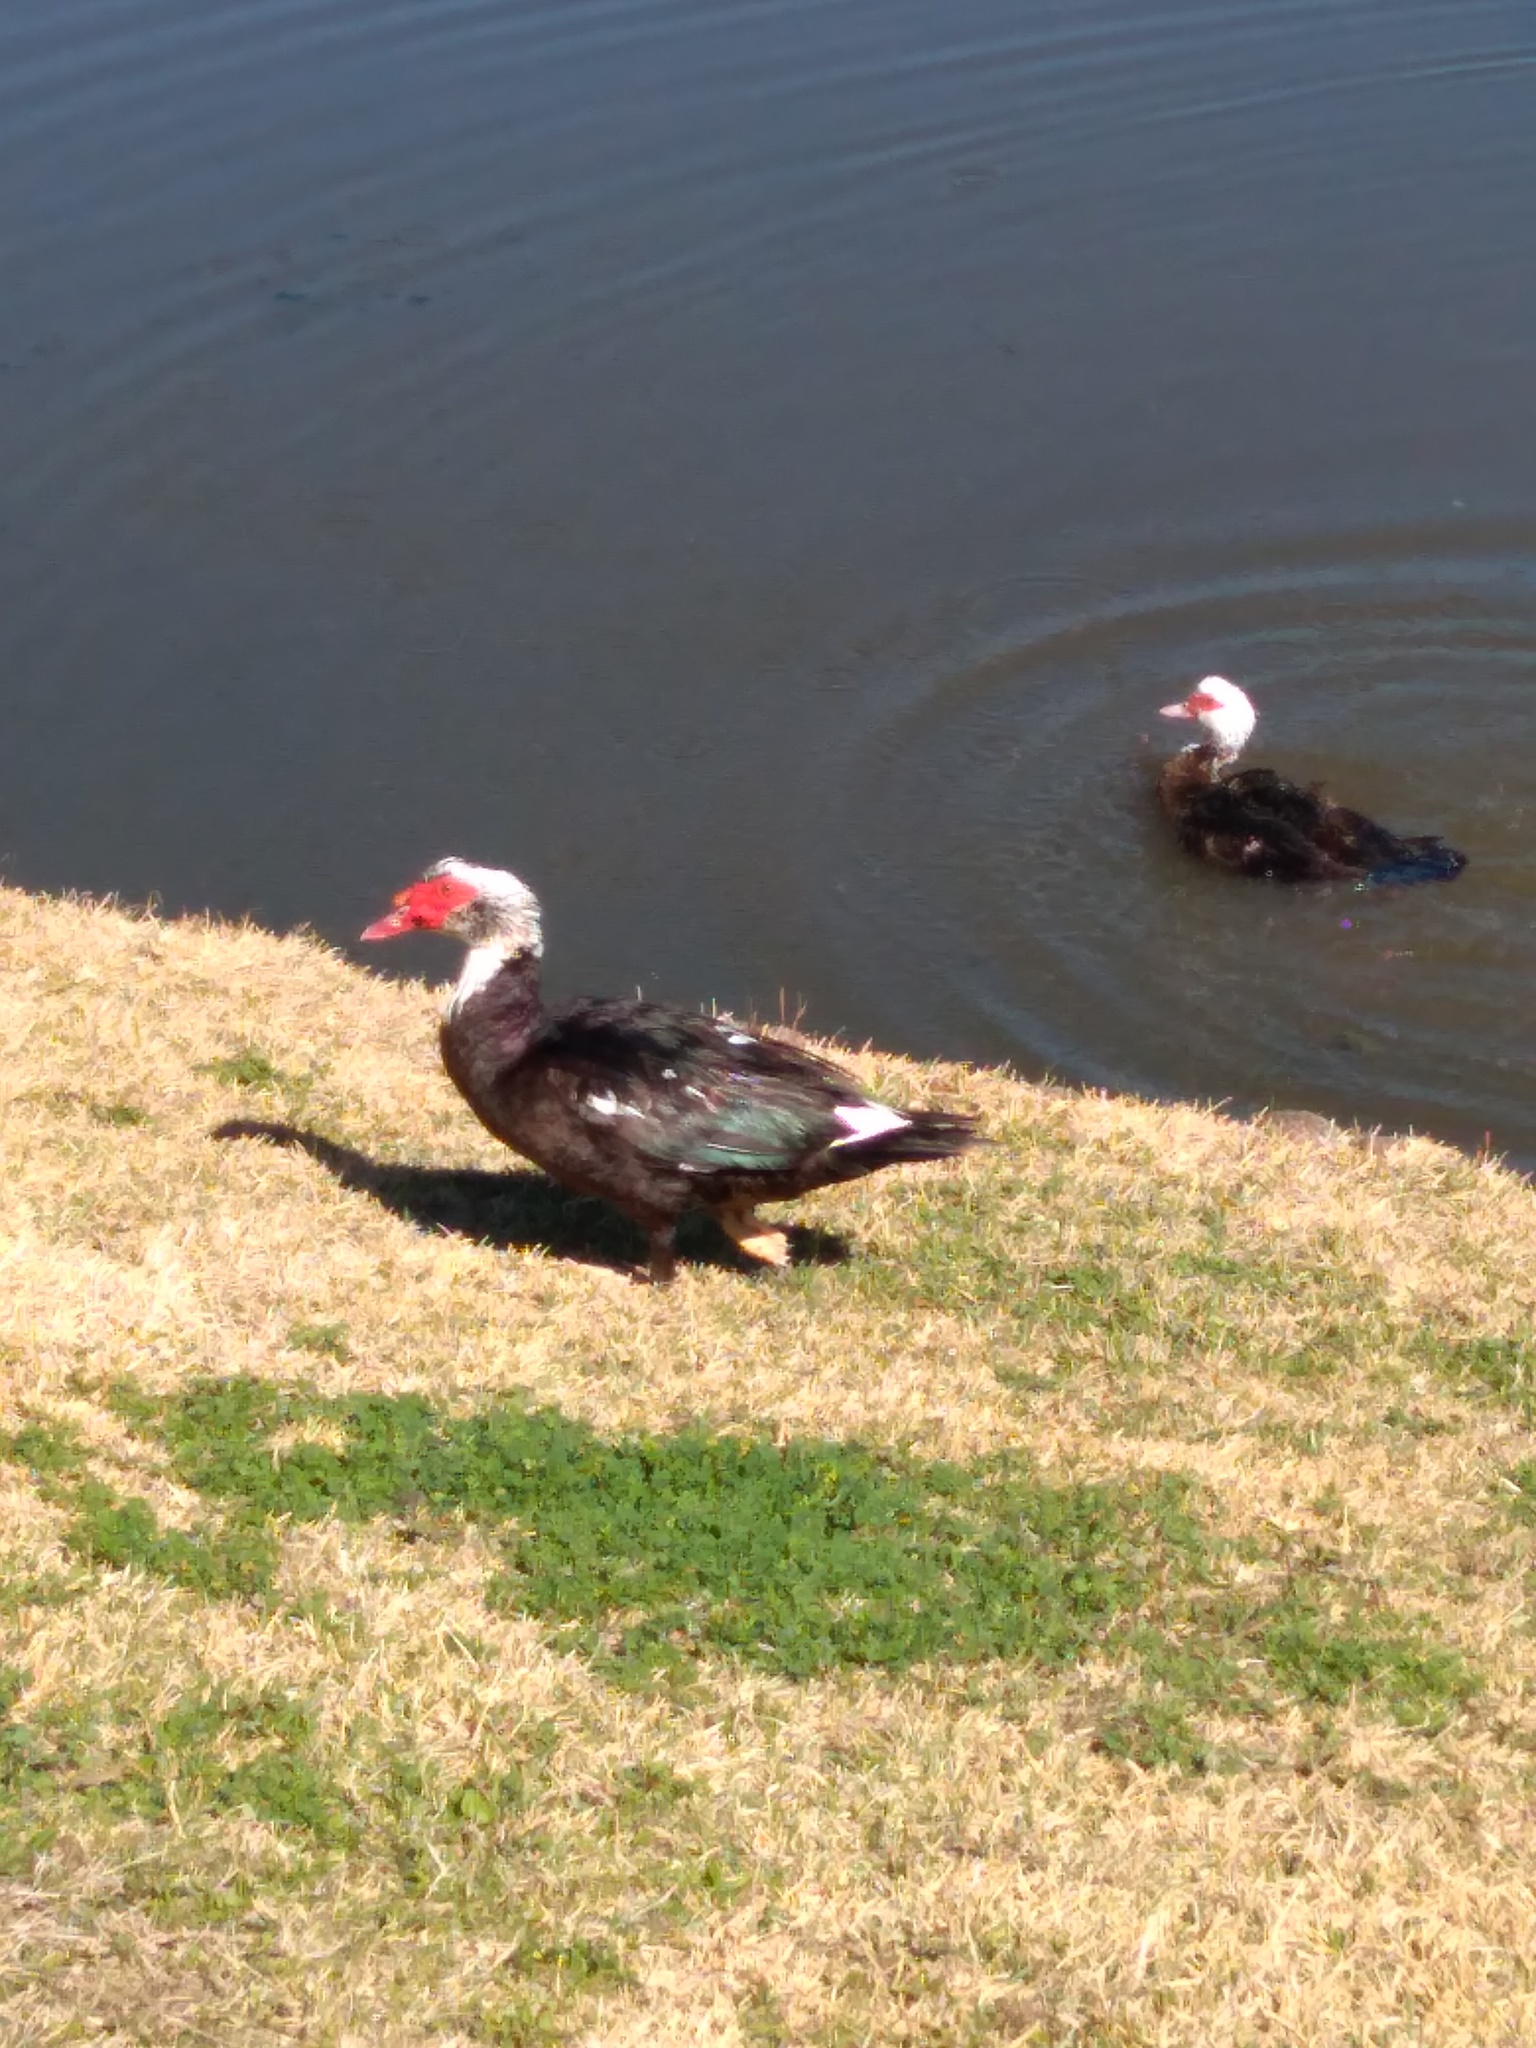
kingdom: Animalia
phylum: Chordata
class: Aves
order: Anseriformes
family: Anatidae
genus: Cairina
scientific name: Cairina moschata
